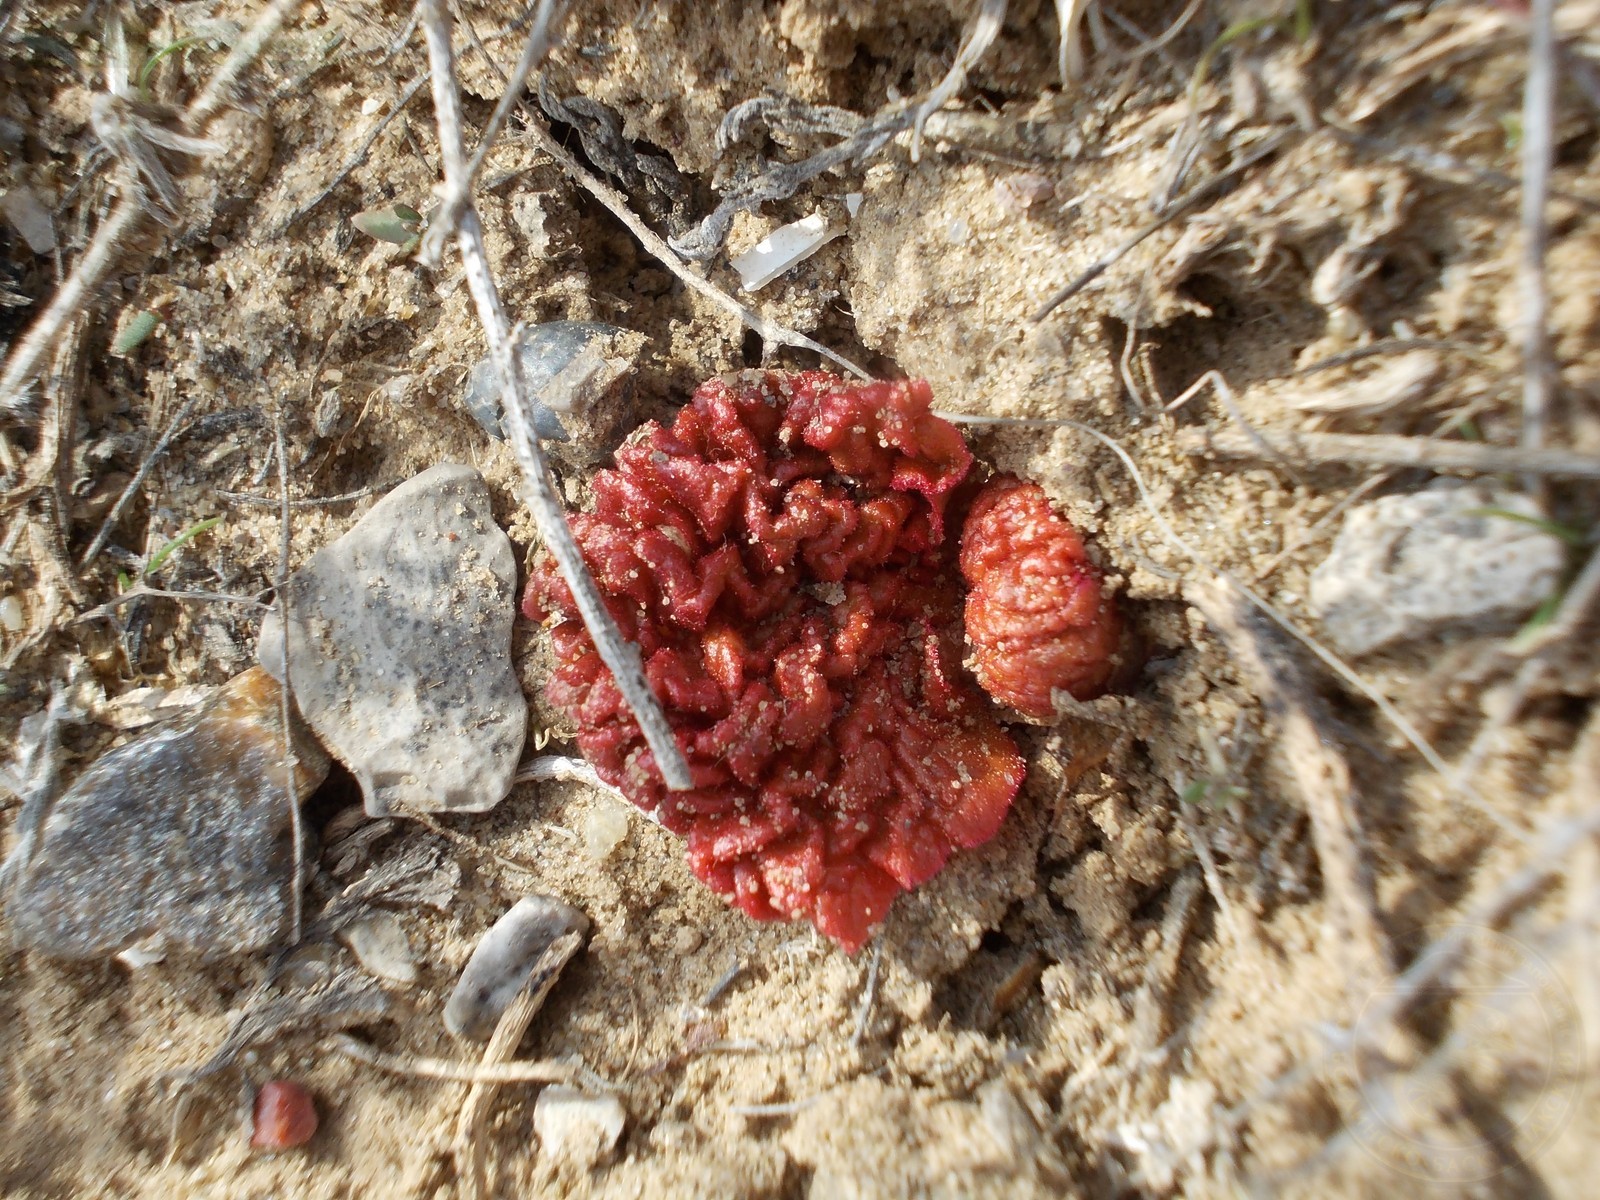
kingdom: Plantae
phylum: Tracheophyta
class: Magnoliopsida
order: Caryophyllales
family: Polygonaceae
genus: Rheum
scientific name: Rheum tataricum
